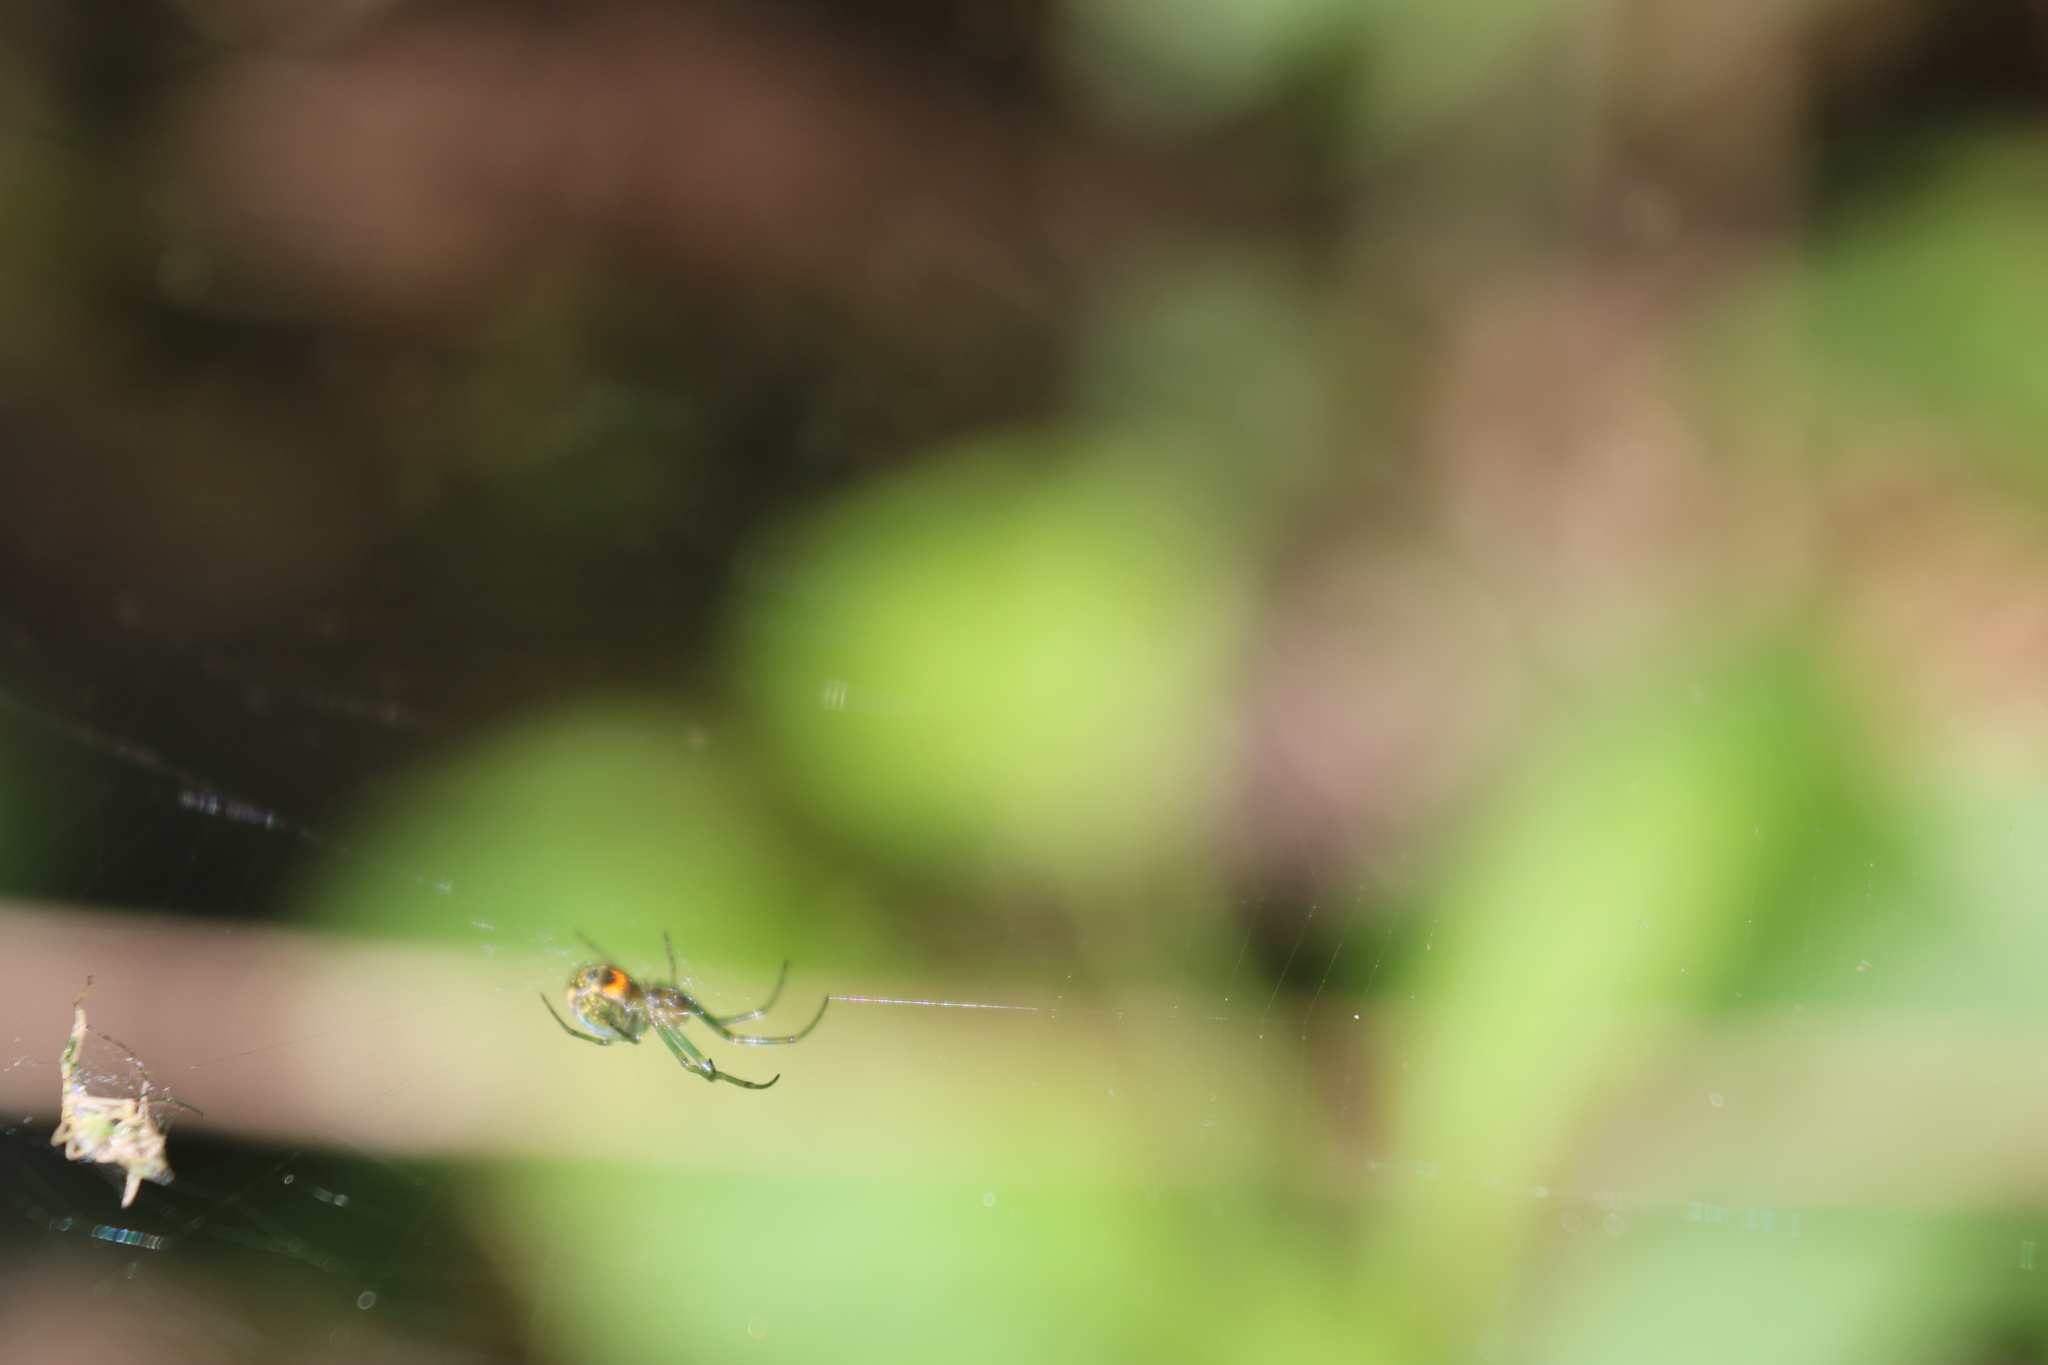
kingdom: Animalia
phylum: Arthropoda
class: Arachnida
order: Araneae
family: Tetragnathidae
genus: Leucauge
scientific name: Leucauge venusta
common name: Longjawed orb weavers
